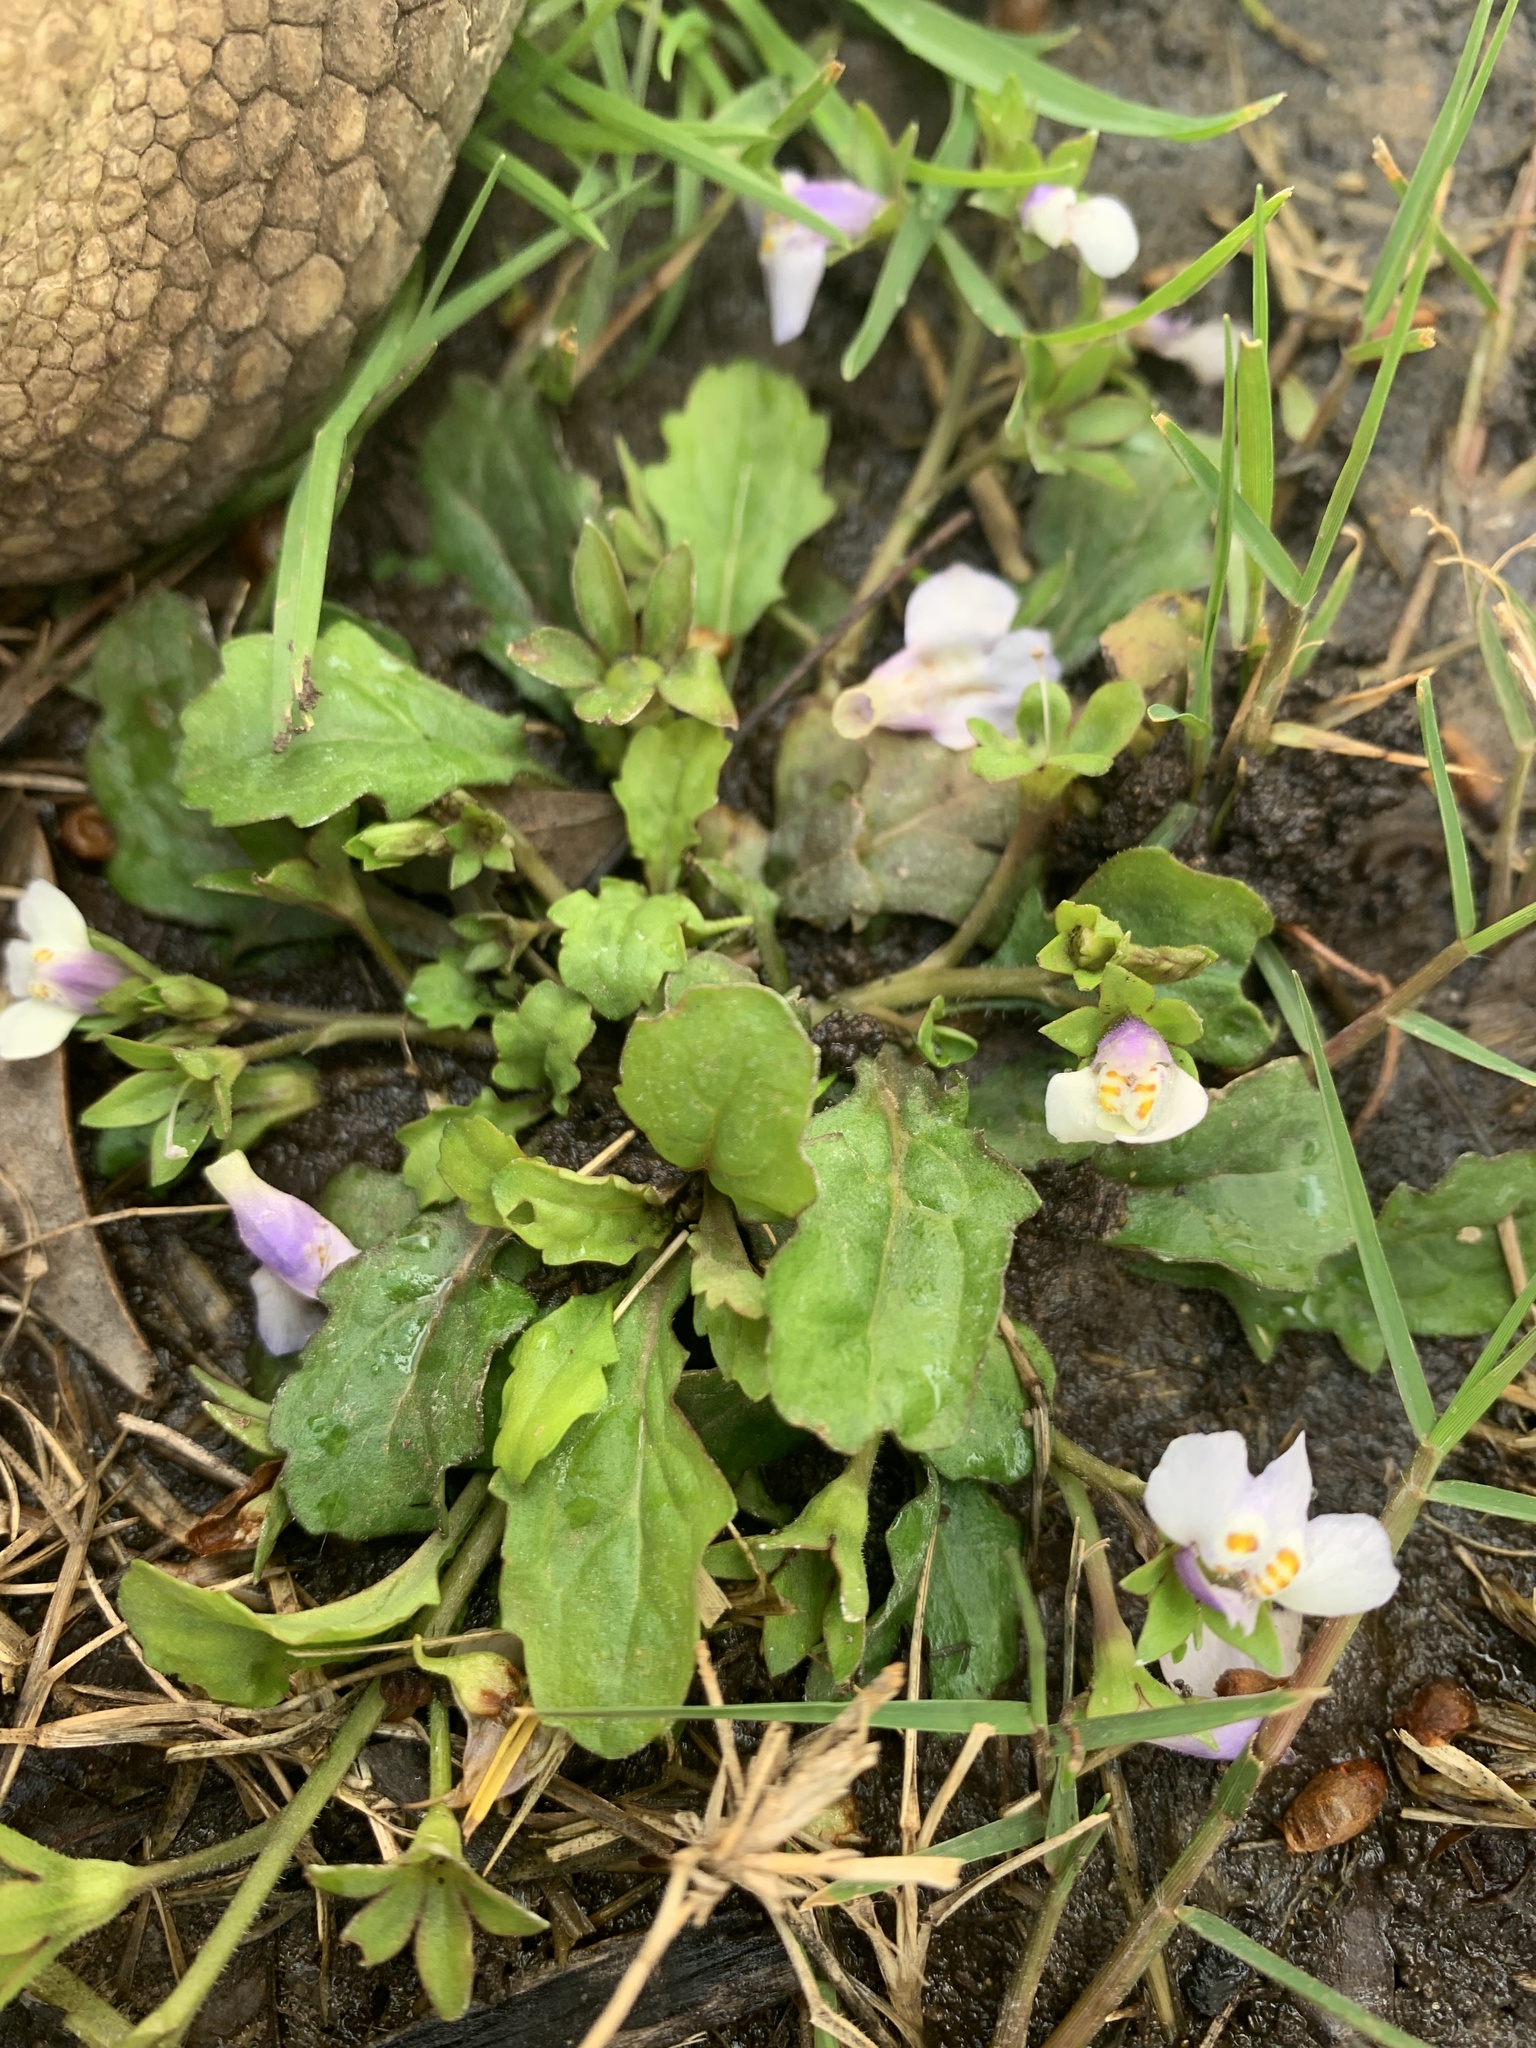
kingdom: Plantae
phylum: Tracheophyta
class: Magnoliopsida
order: Lamiales
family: Mazaceae
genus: Mazus
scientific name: Mazus pumilus
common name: Japanese mazus
